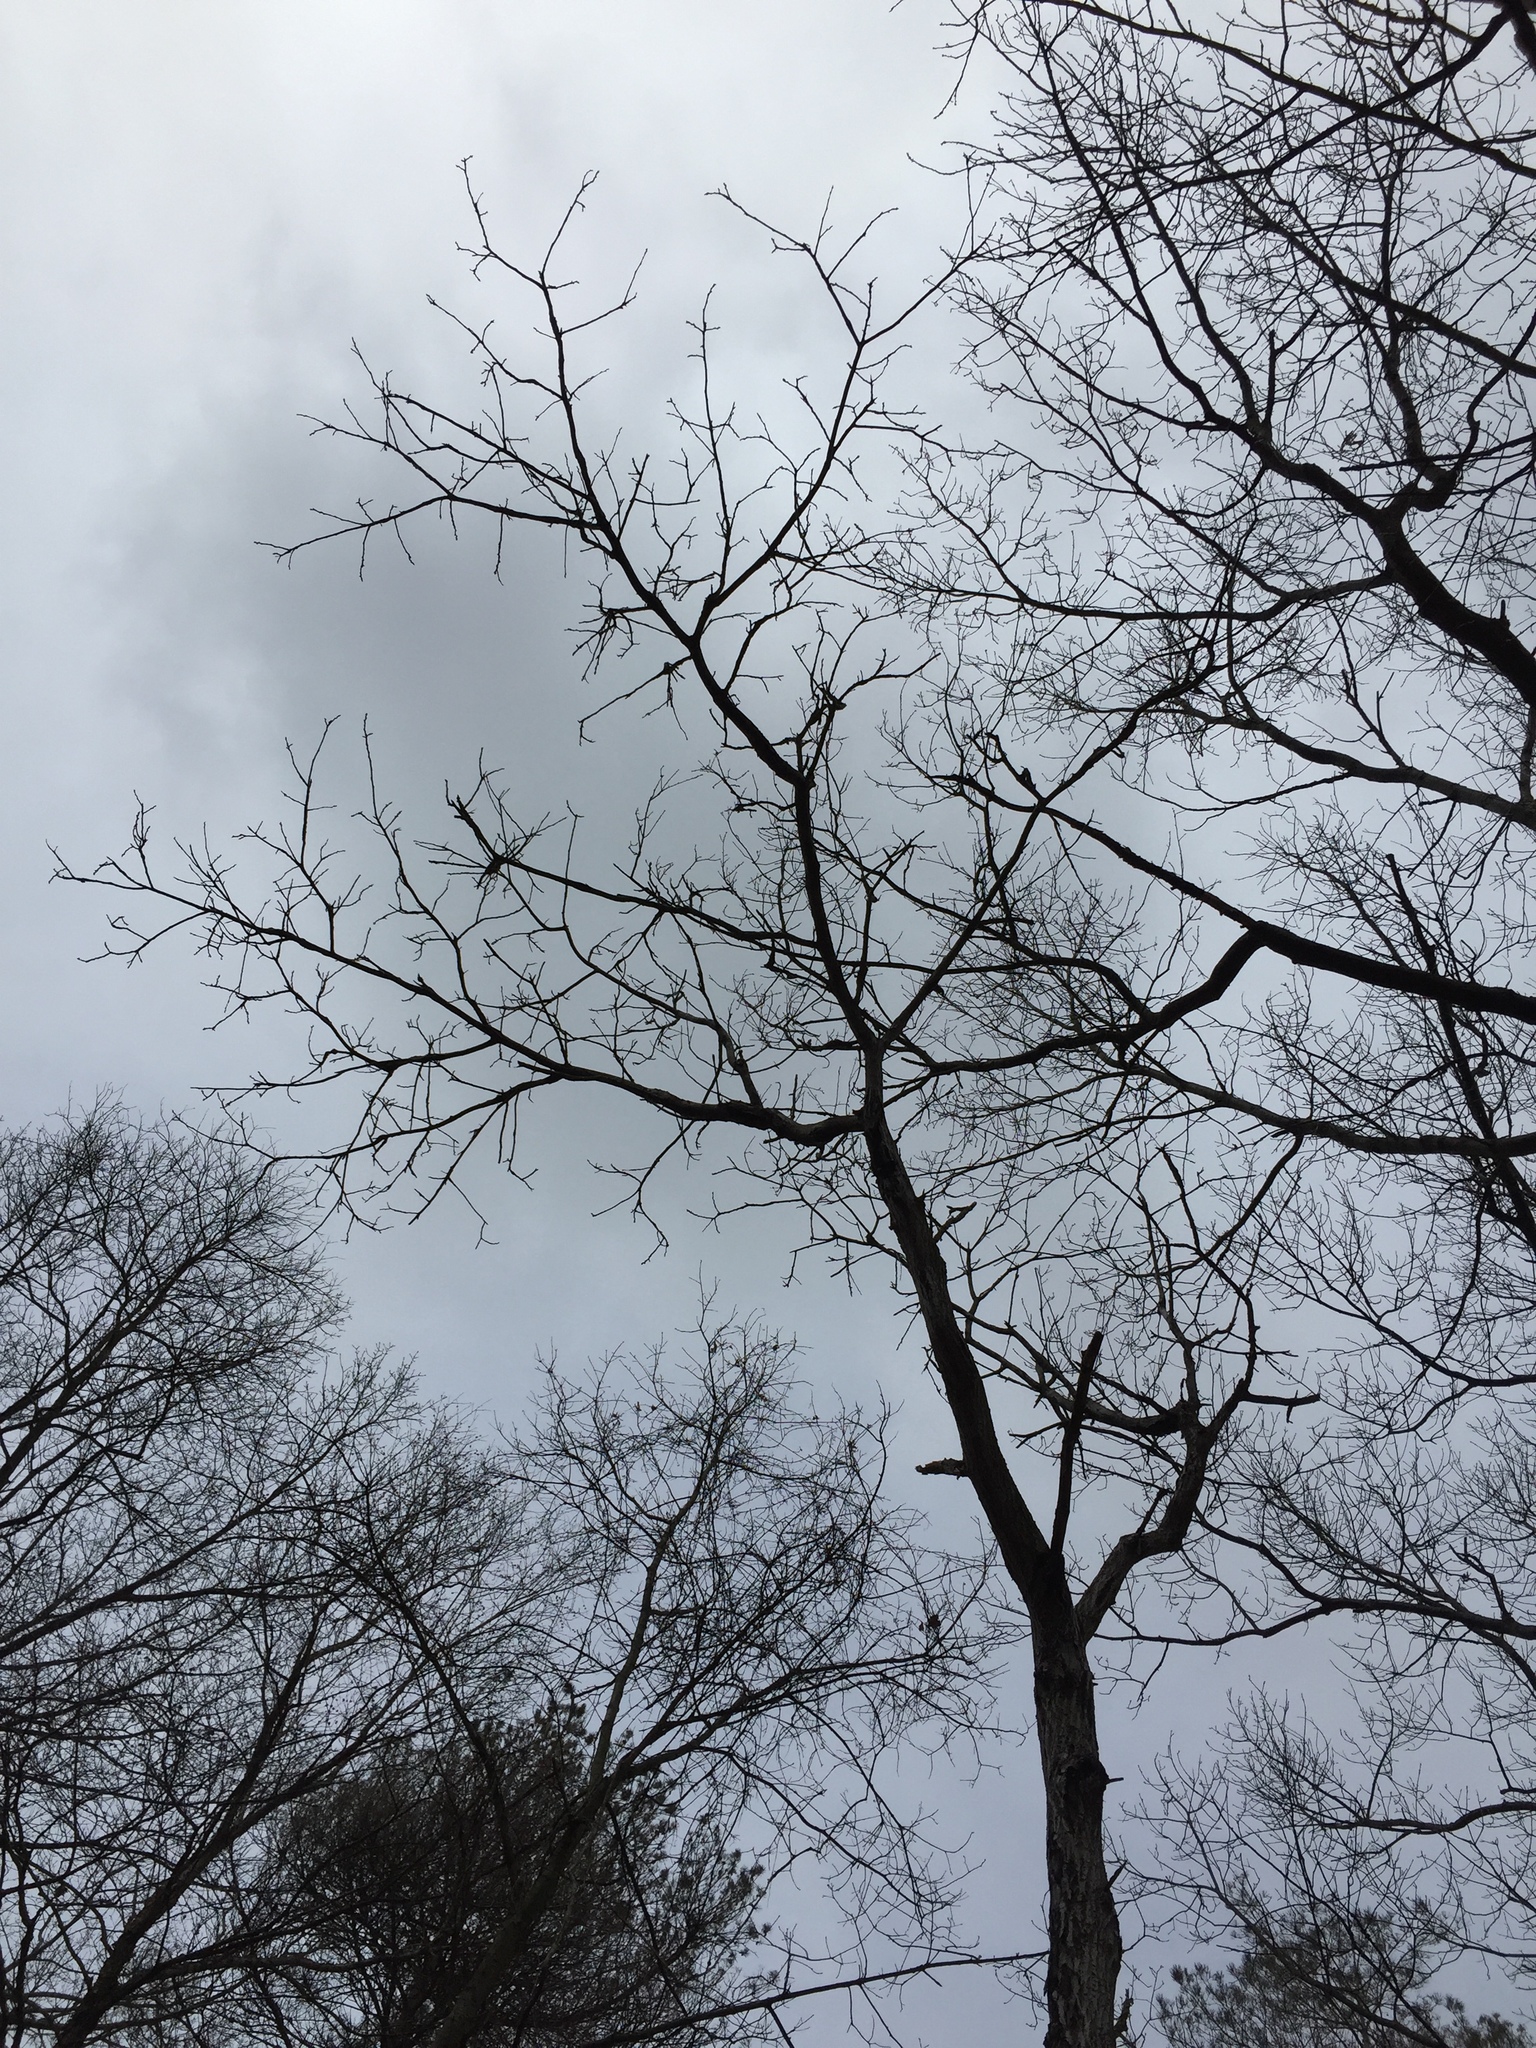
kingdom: Plantae
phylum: Tracheophyta
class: Magnoliopsida
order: Fagales
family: Juglandaceae
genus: Juglans
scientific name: Juglans cinerea
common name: Butternut
